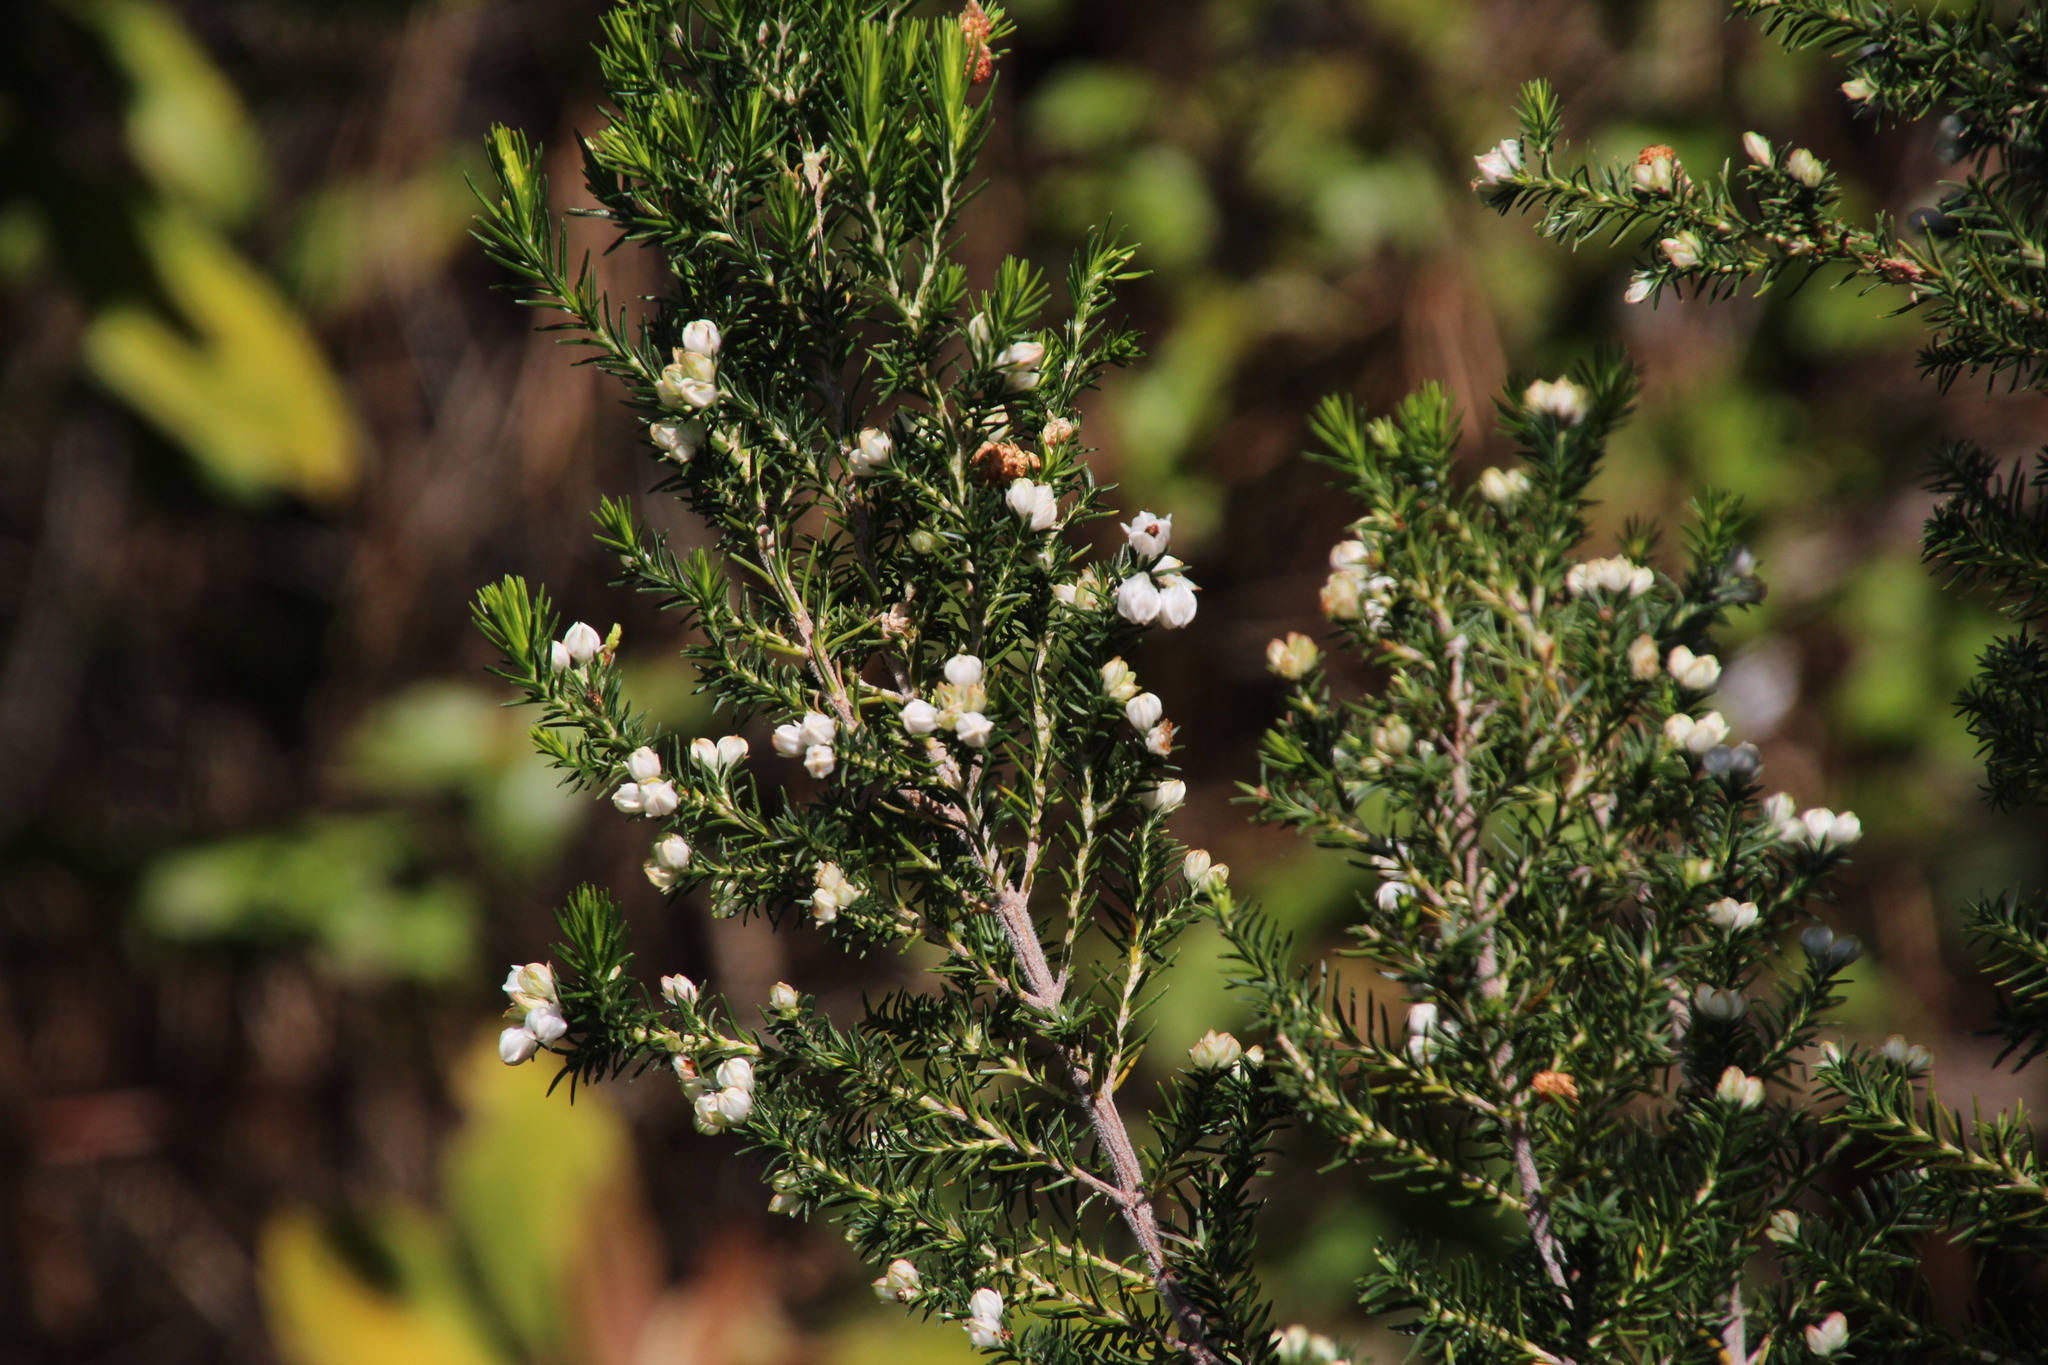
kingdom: Plantae
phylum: Tracheophyta
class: Magnoliopsida
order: Ericales
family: Ericaceae
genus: Erica
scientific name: Erica triflora
